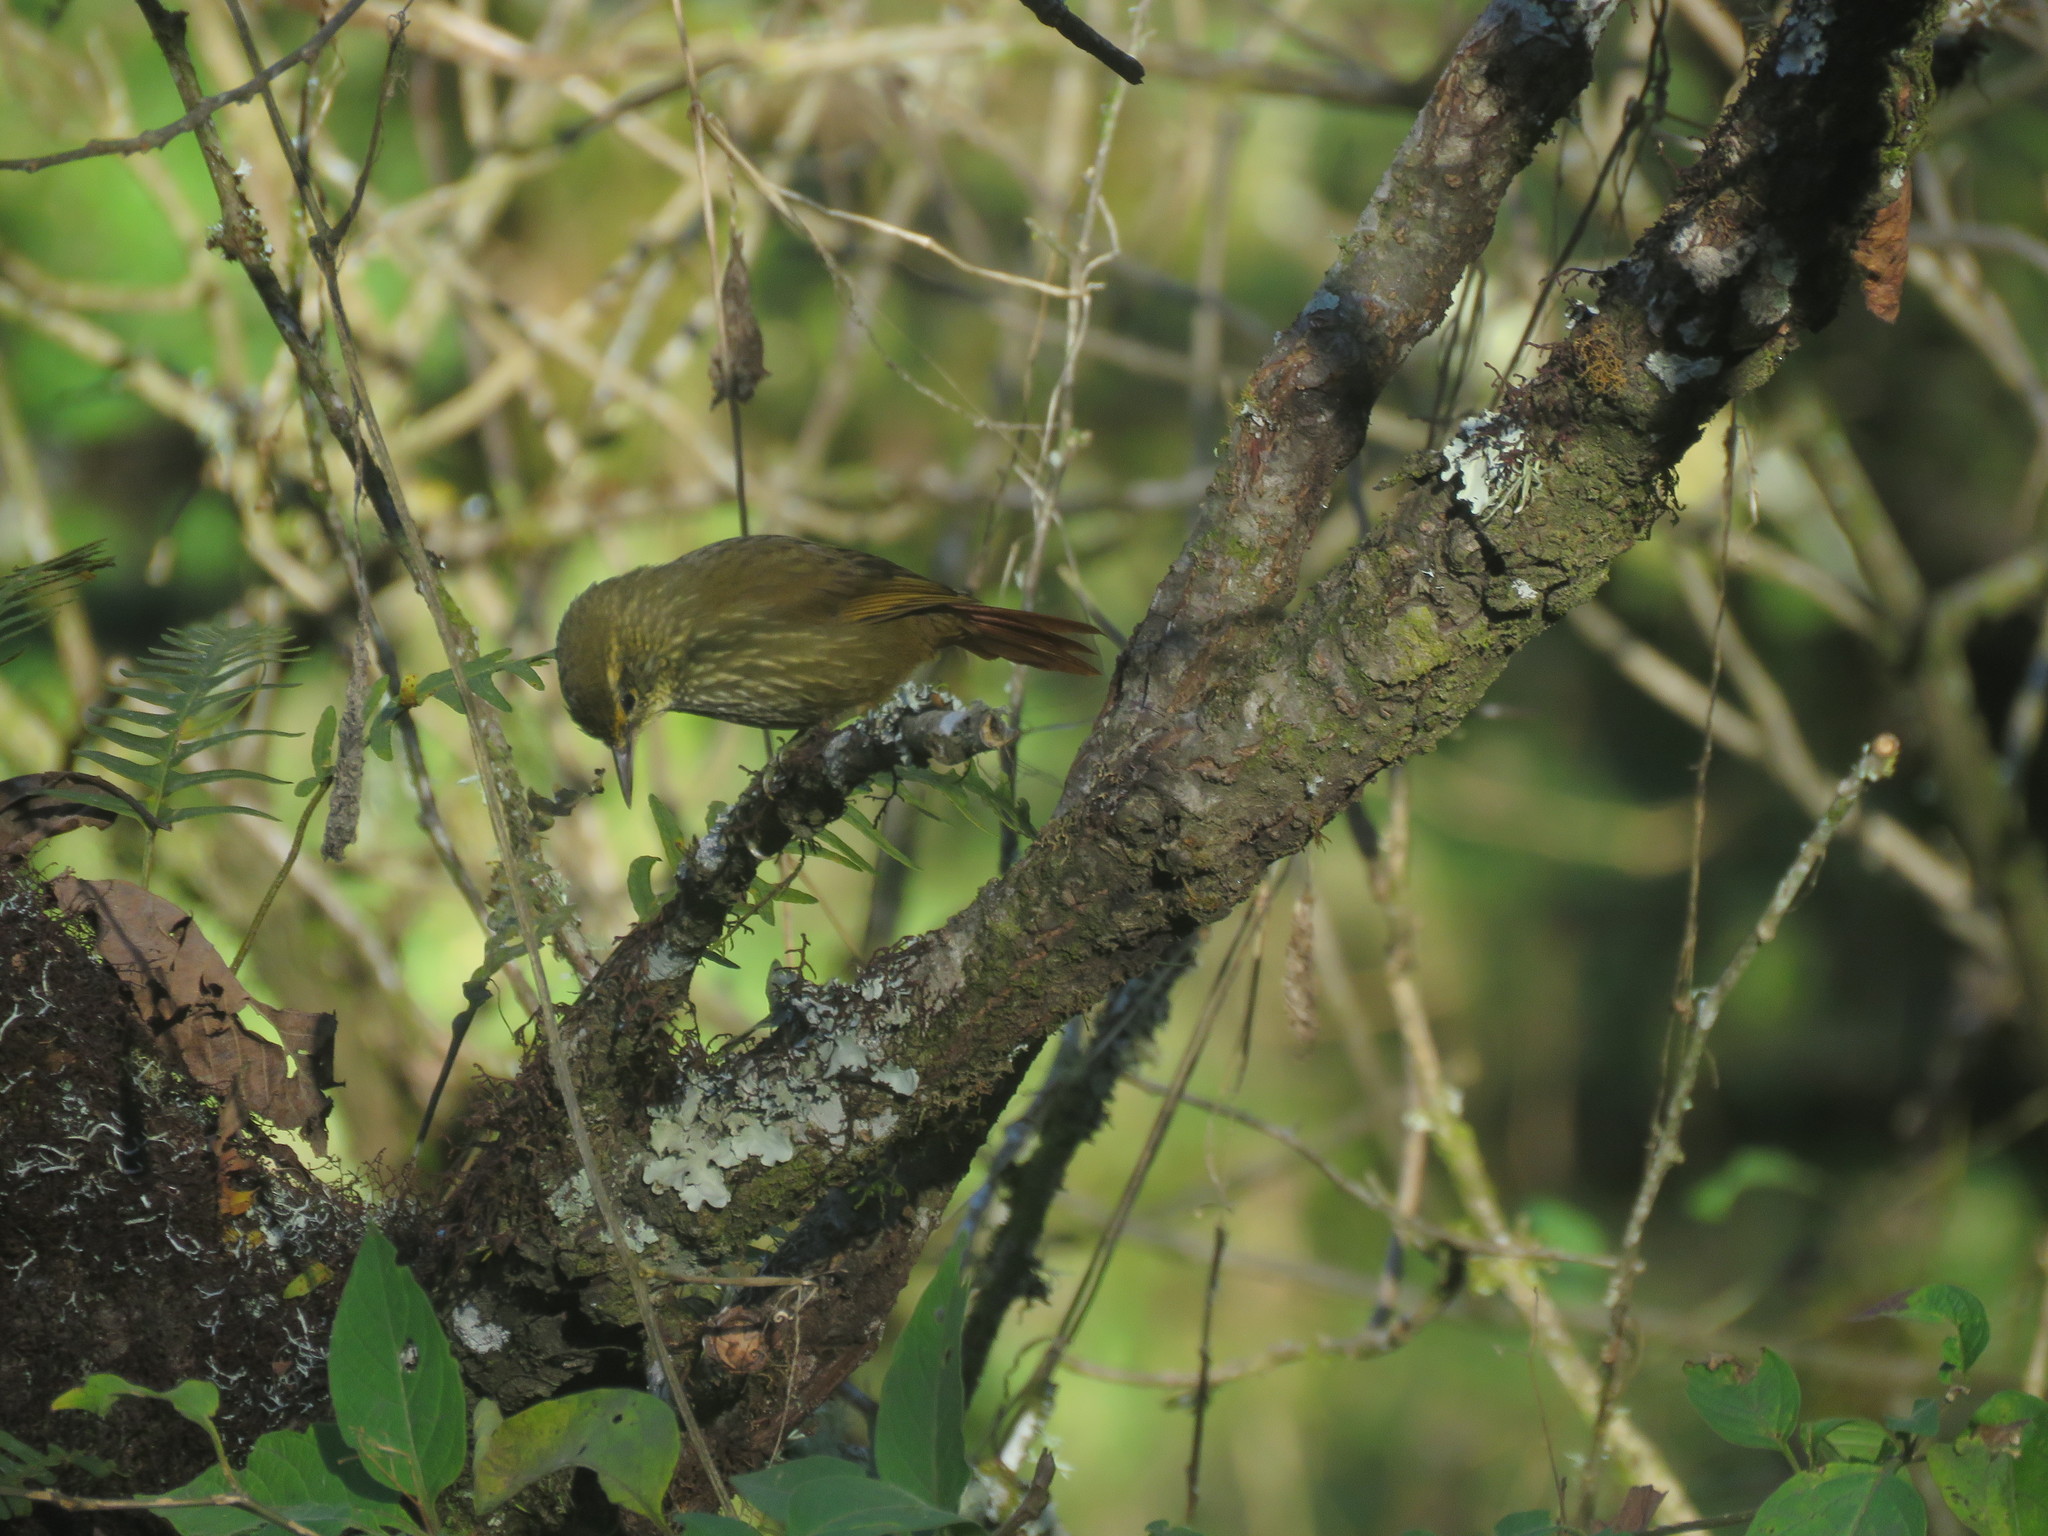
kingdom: Animalia
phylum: Chordata
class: Aves
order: Passeriformes
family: Furnariidae
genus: Syndactyla
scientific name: Syndactyla rufosuperciliata
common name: Buff-browed foliage-gleaner
